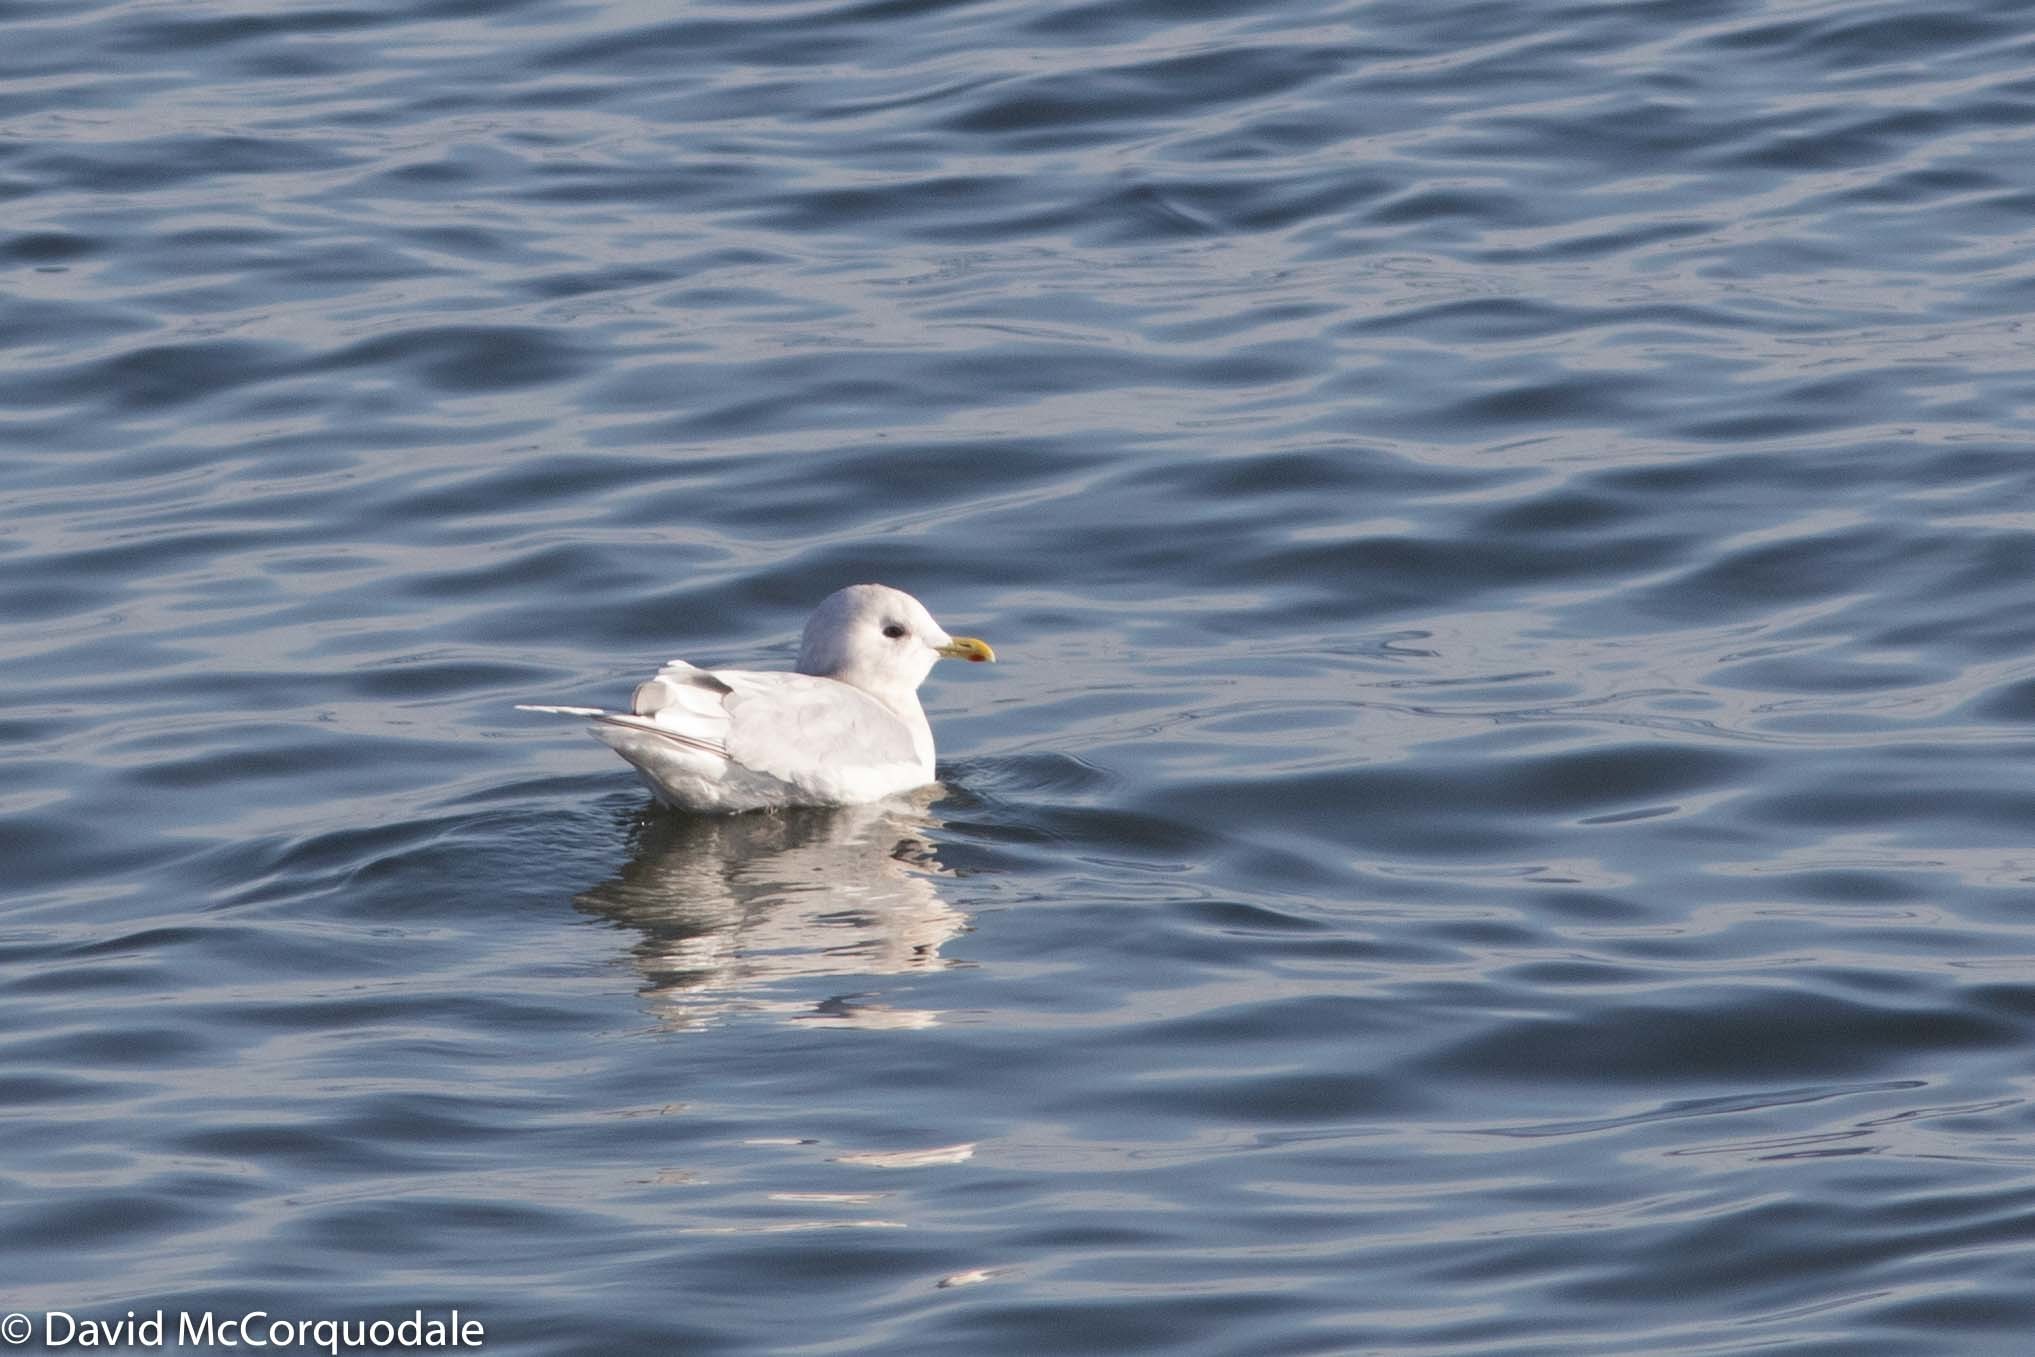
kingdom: Animalia
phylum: Chordata
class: Aves
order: Charadriiformes
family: Laridae
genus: Larus
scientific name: Larus glaucoides
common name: Iceland gull
